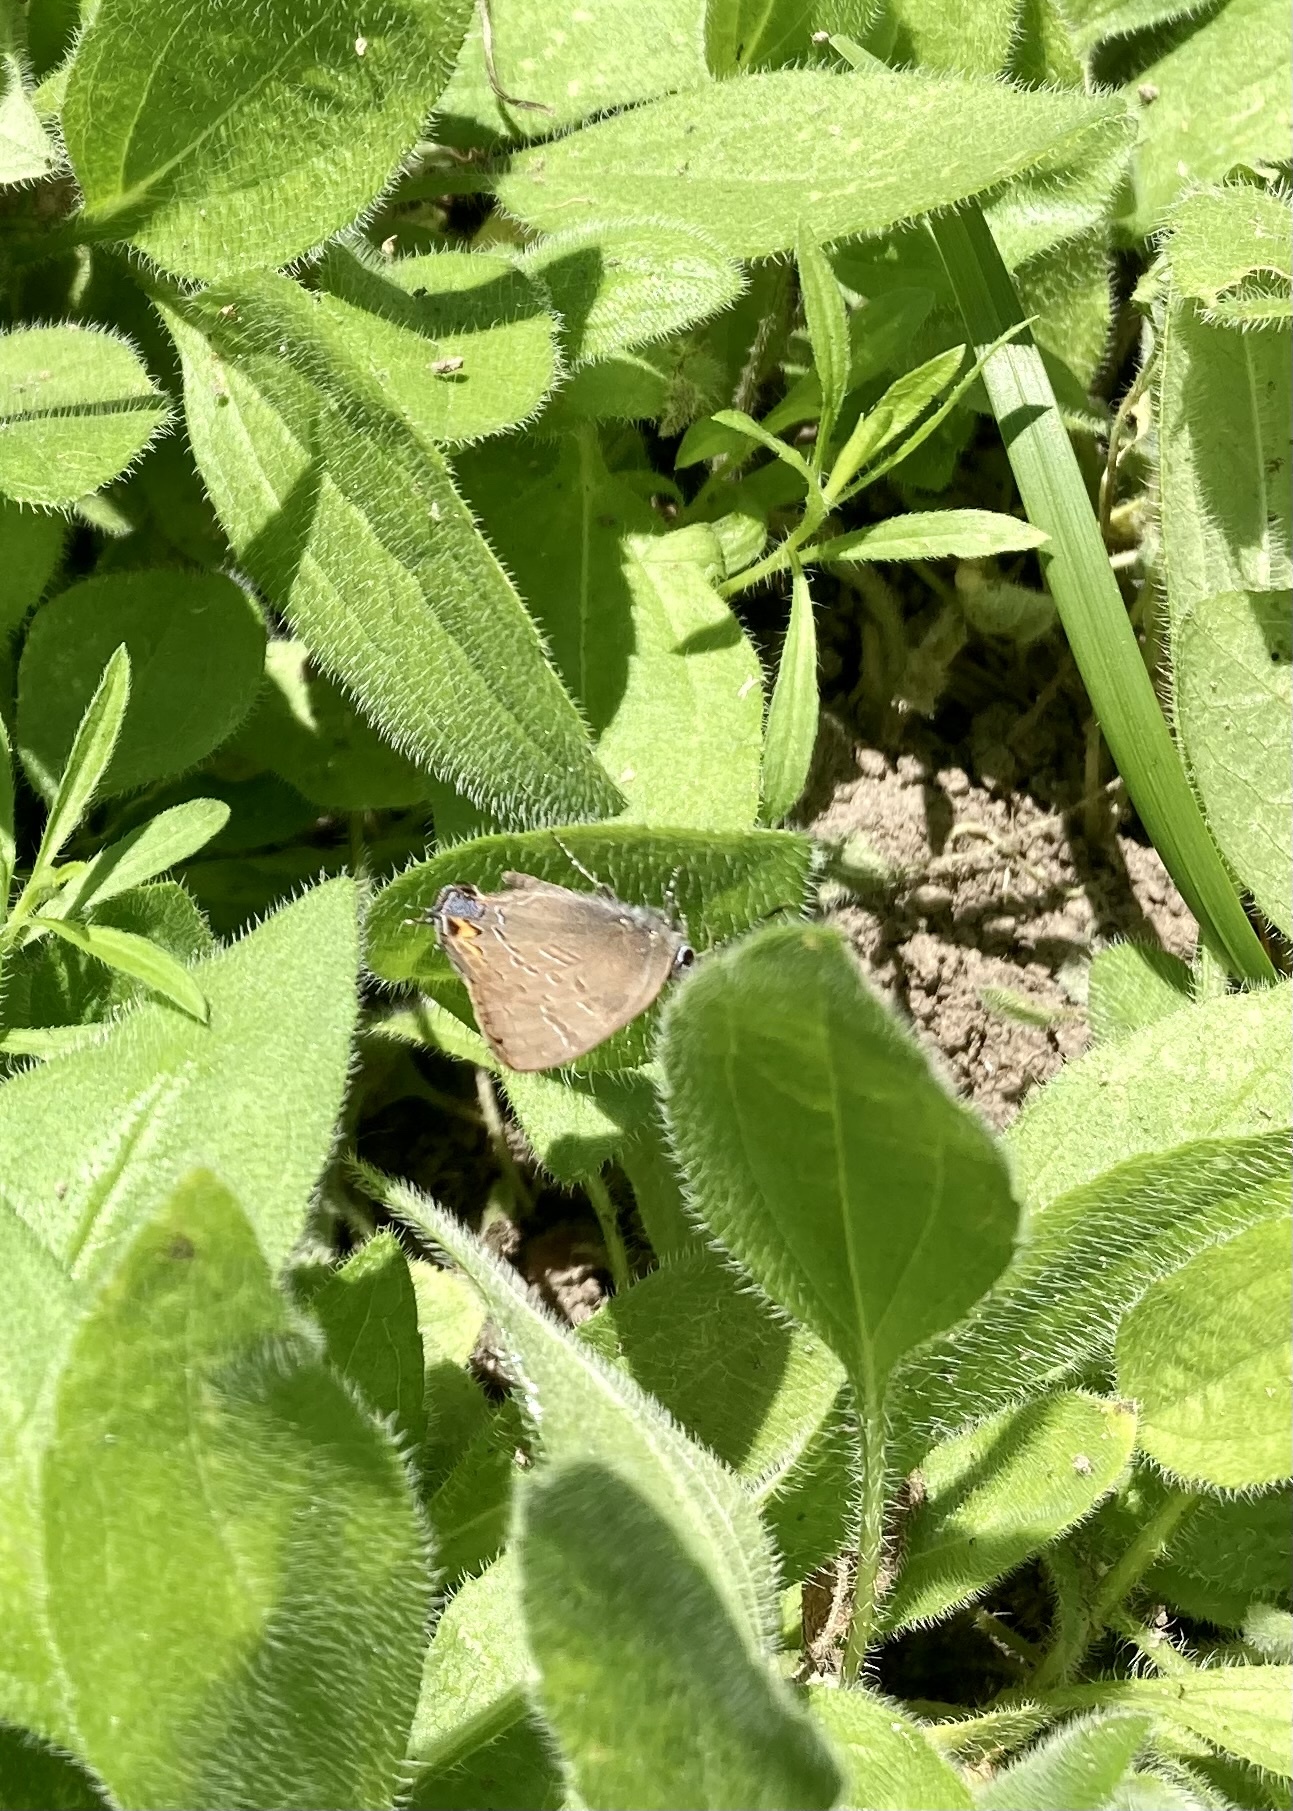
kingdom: Animalia
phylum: Arthropoda
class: Insecta
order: Lepidoptera
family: Lycaenidae
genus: Satyrium
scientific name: Satyrium calanus
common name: Banded hairstreak
